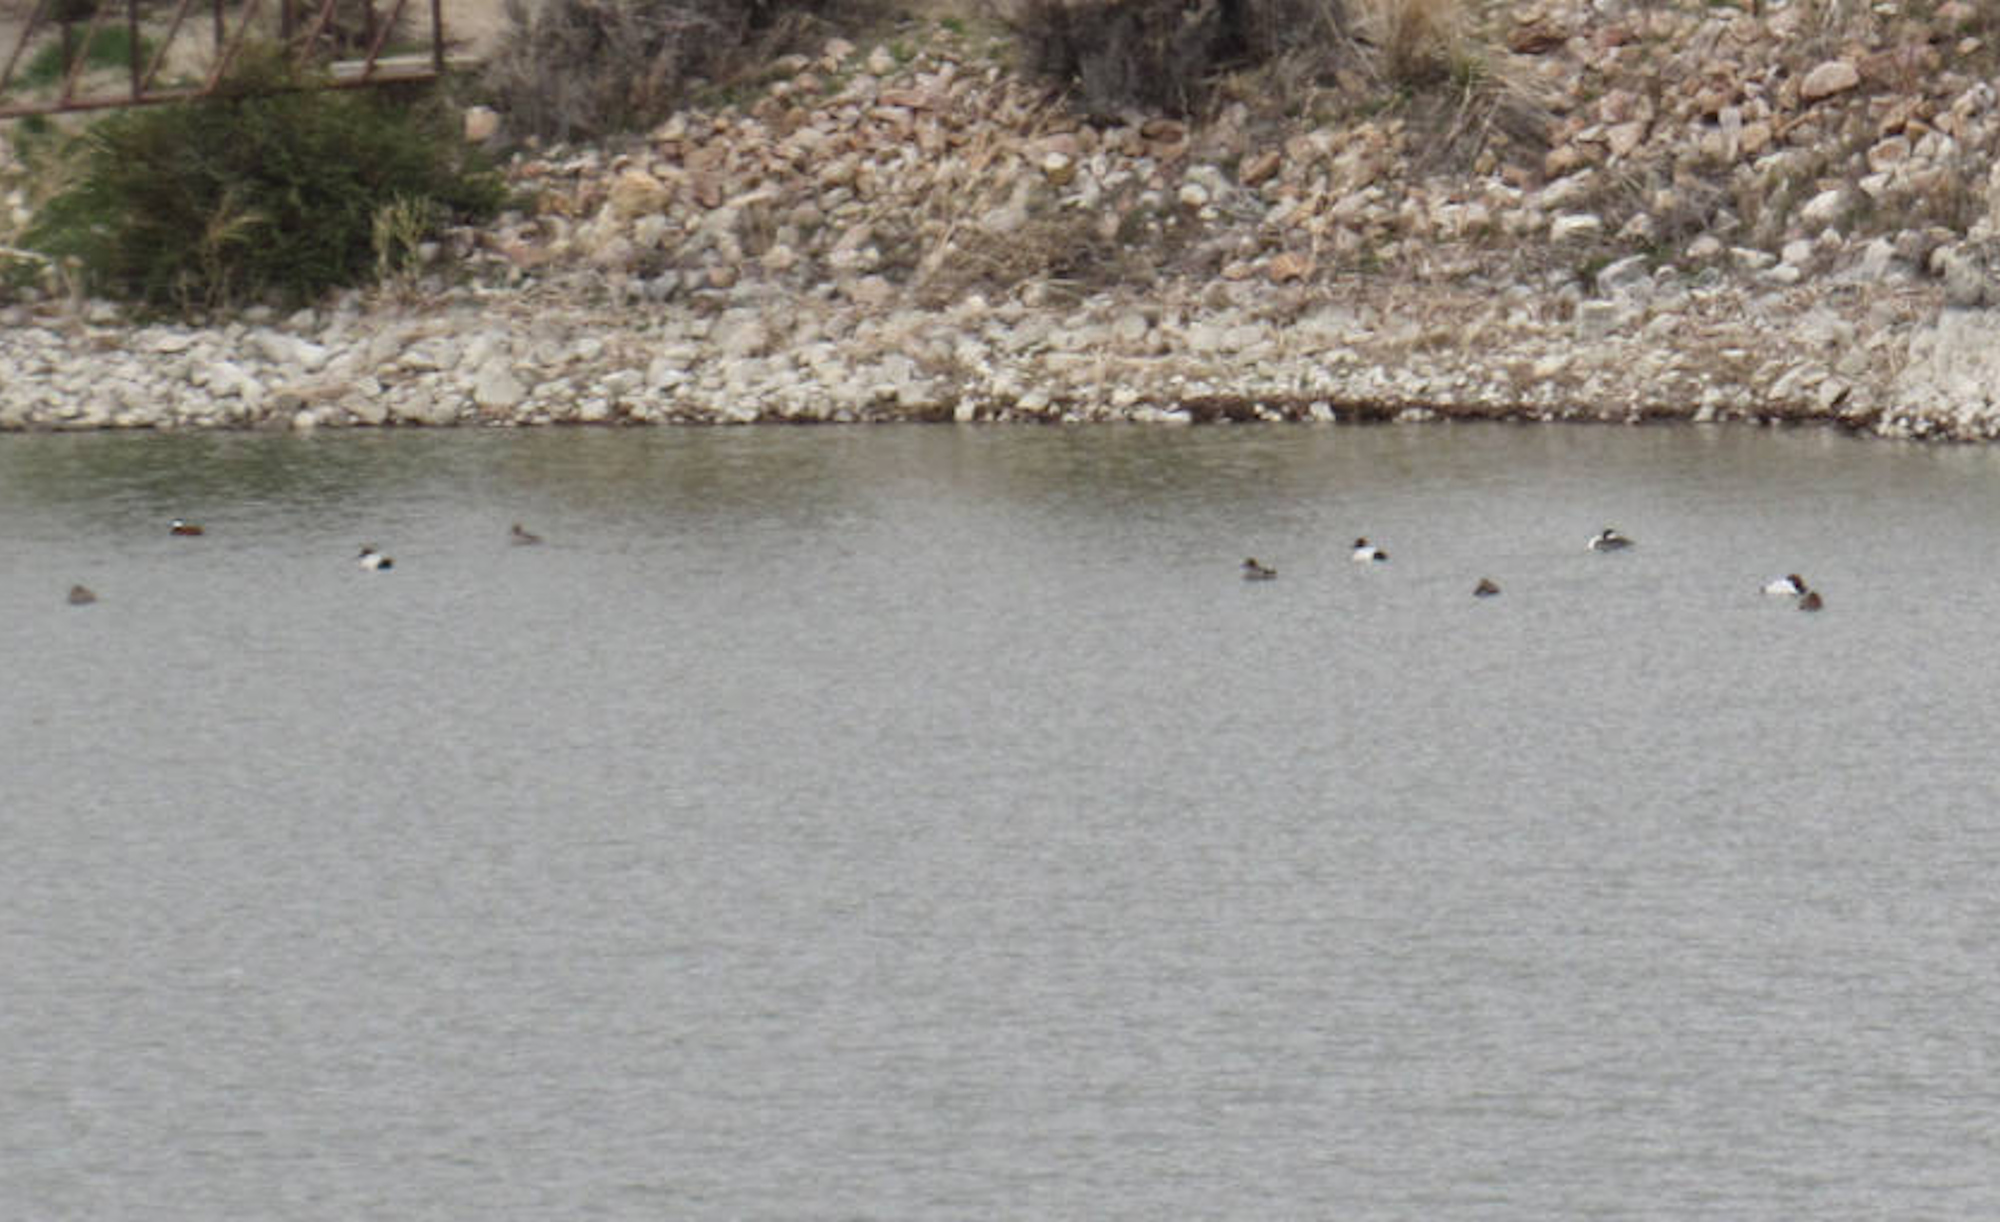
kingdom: Animalia
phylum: Chordata
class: Aves
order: Anseriformes
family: Anatidae
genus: Oxyura
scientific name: Oxyura jamaicensis
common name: Ruddy duck
